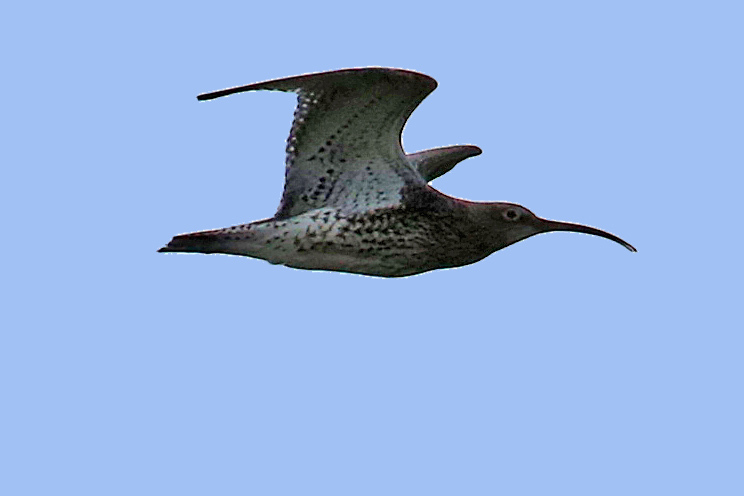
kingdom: Animalia
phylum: Chordata
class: Aves
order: Charadriiformes
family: Scolopacidae
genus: Numenius
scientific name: Numenius arquata
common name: Eurasian curlew
